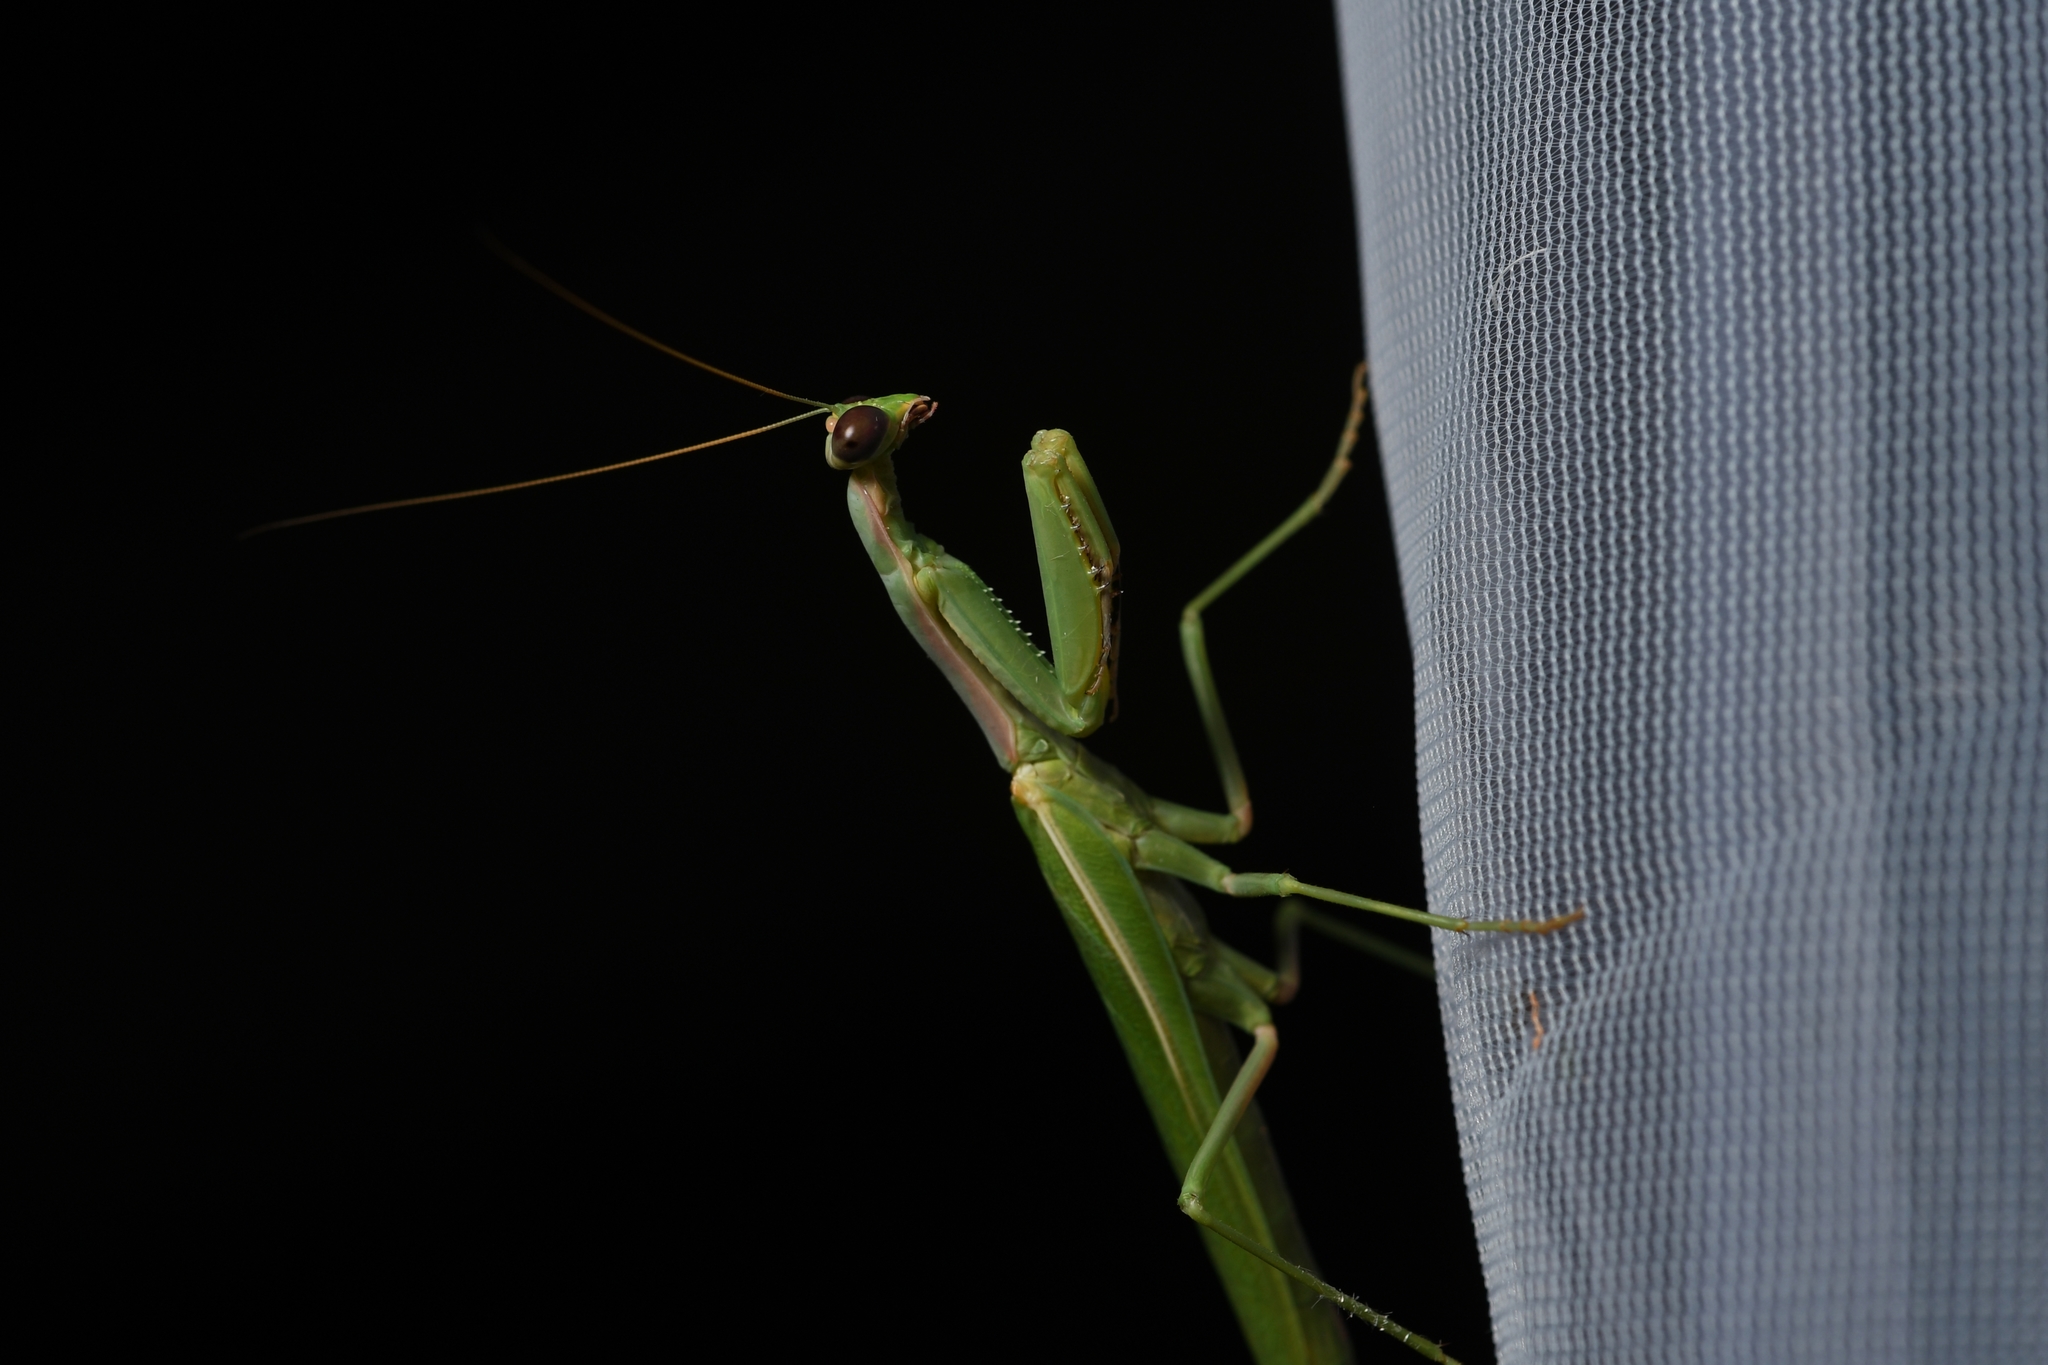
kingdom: Animalia
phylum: Arthropoda
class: Insecta
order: Mantodea
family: Eremiaphilidae
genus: Iris
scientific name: Iris oratoria
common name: Mediterranean mantis
